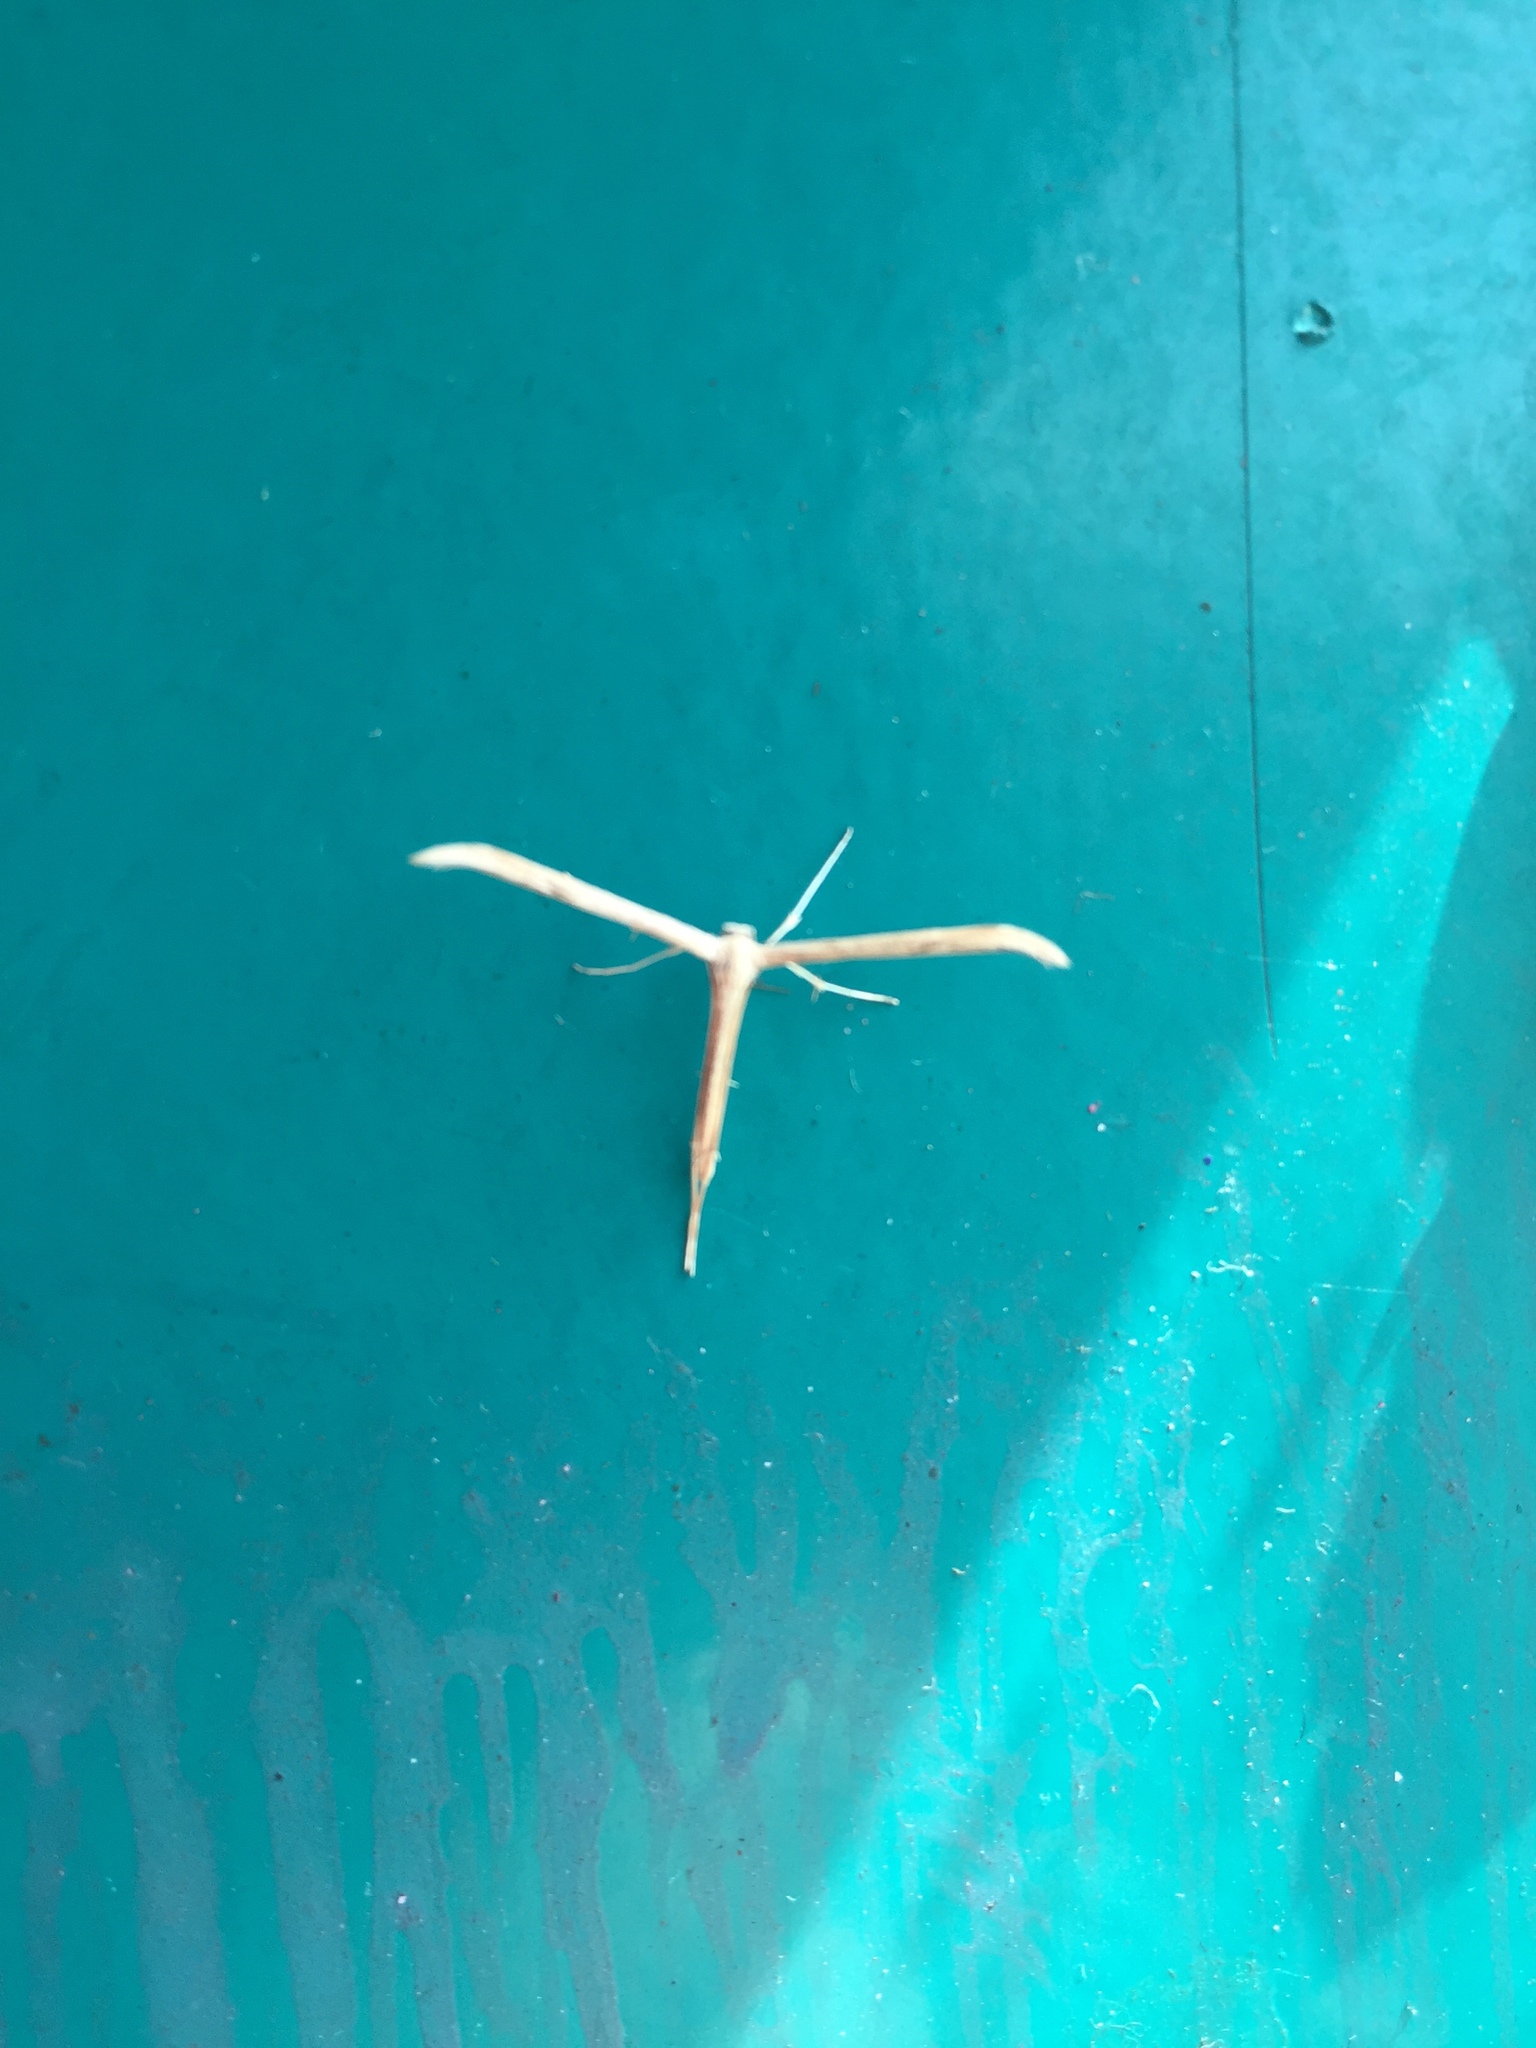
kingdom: Animalia
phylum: Arthropoda
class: Insecta
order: Lepidoptera
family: Pterophoridae
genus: Emmelina
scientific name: Emmelina monodactyla
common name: Common plume
